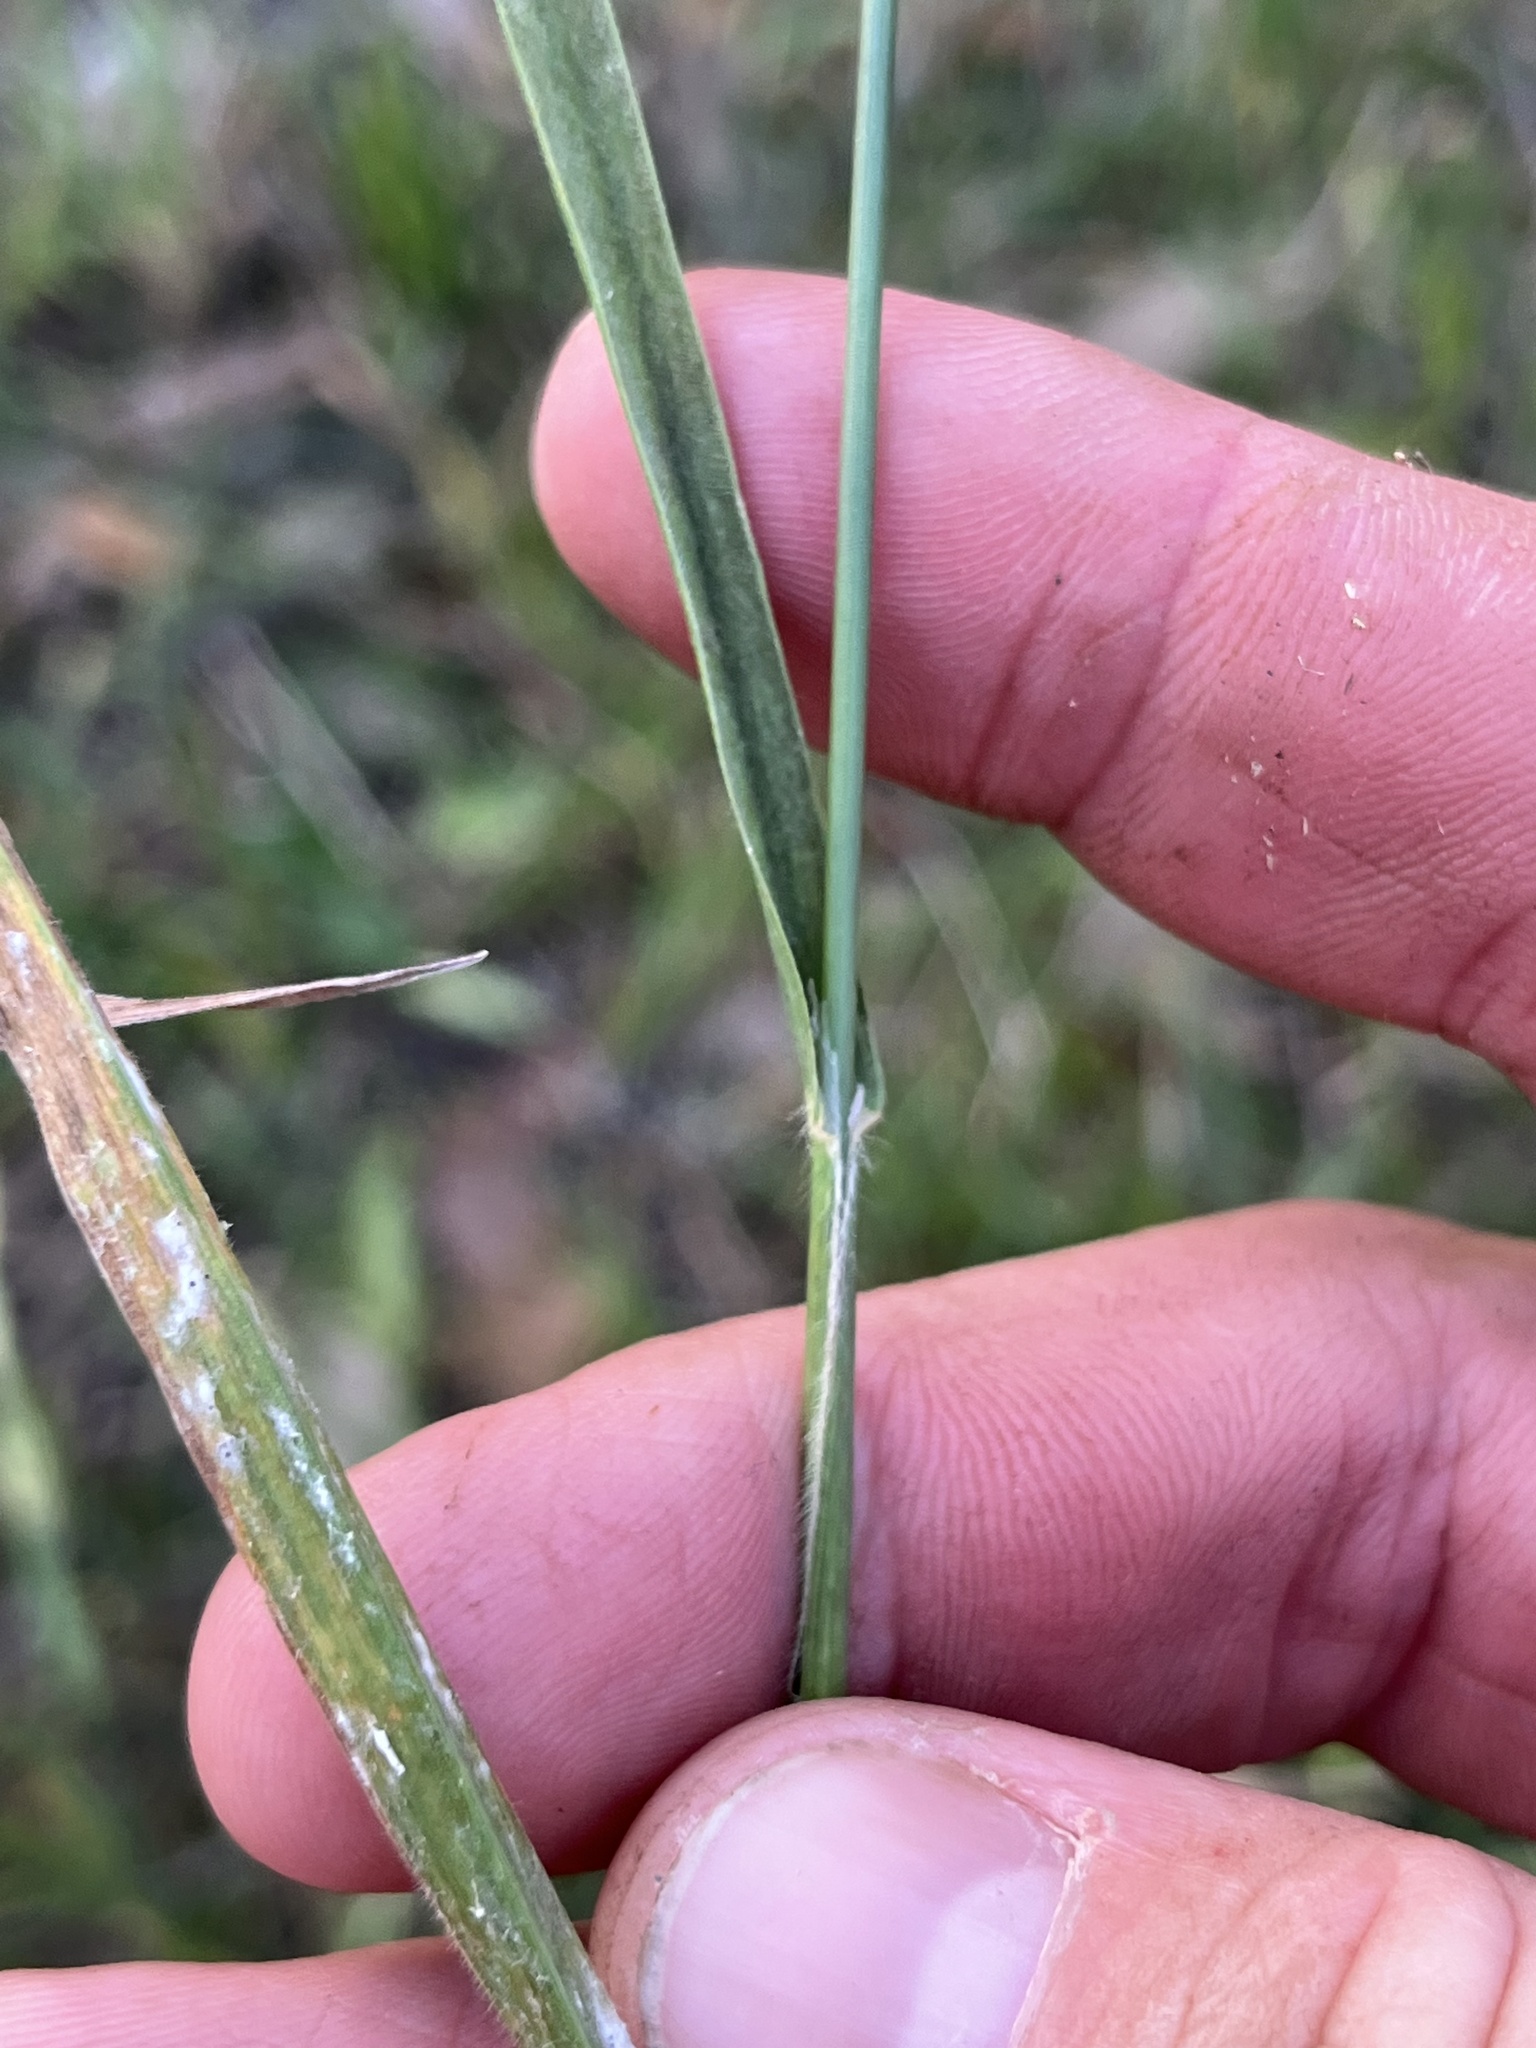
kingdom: Plantae
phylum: Tracheophyta
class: Liliopsida
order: Poales
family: Poaceae
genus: Bromus
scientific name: Bromus catharticus
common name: Rescuegrass
